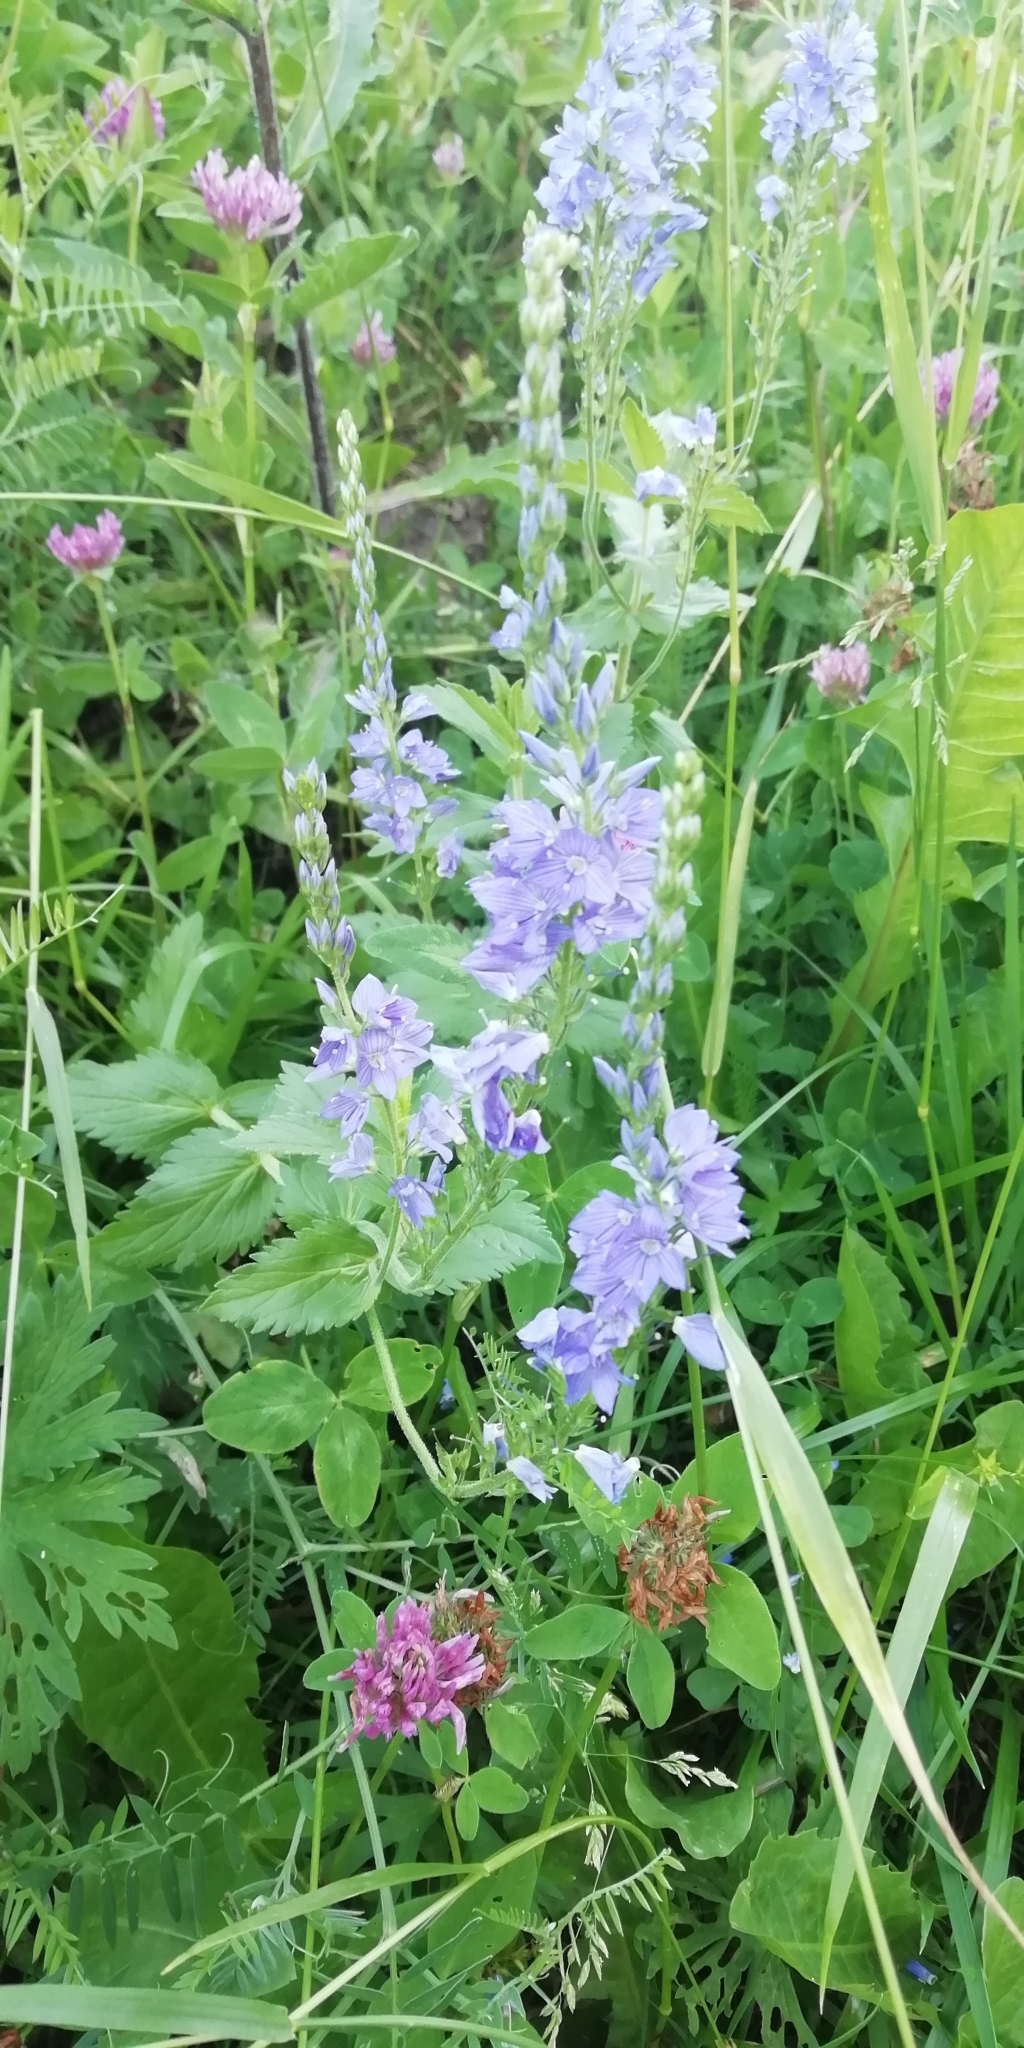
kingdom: Plantae
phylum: Tracheophyta
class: Magnoliopsida
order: Lamiales
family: Plantaginaceae
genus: Veronica
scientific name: Veronica teucrium
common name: Large speedwell
